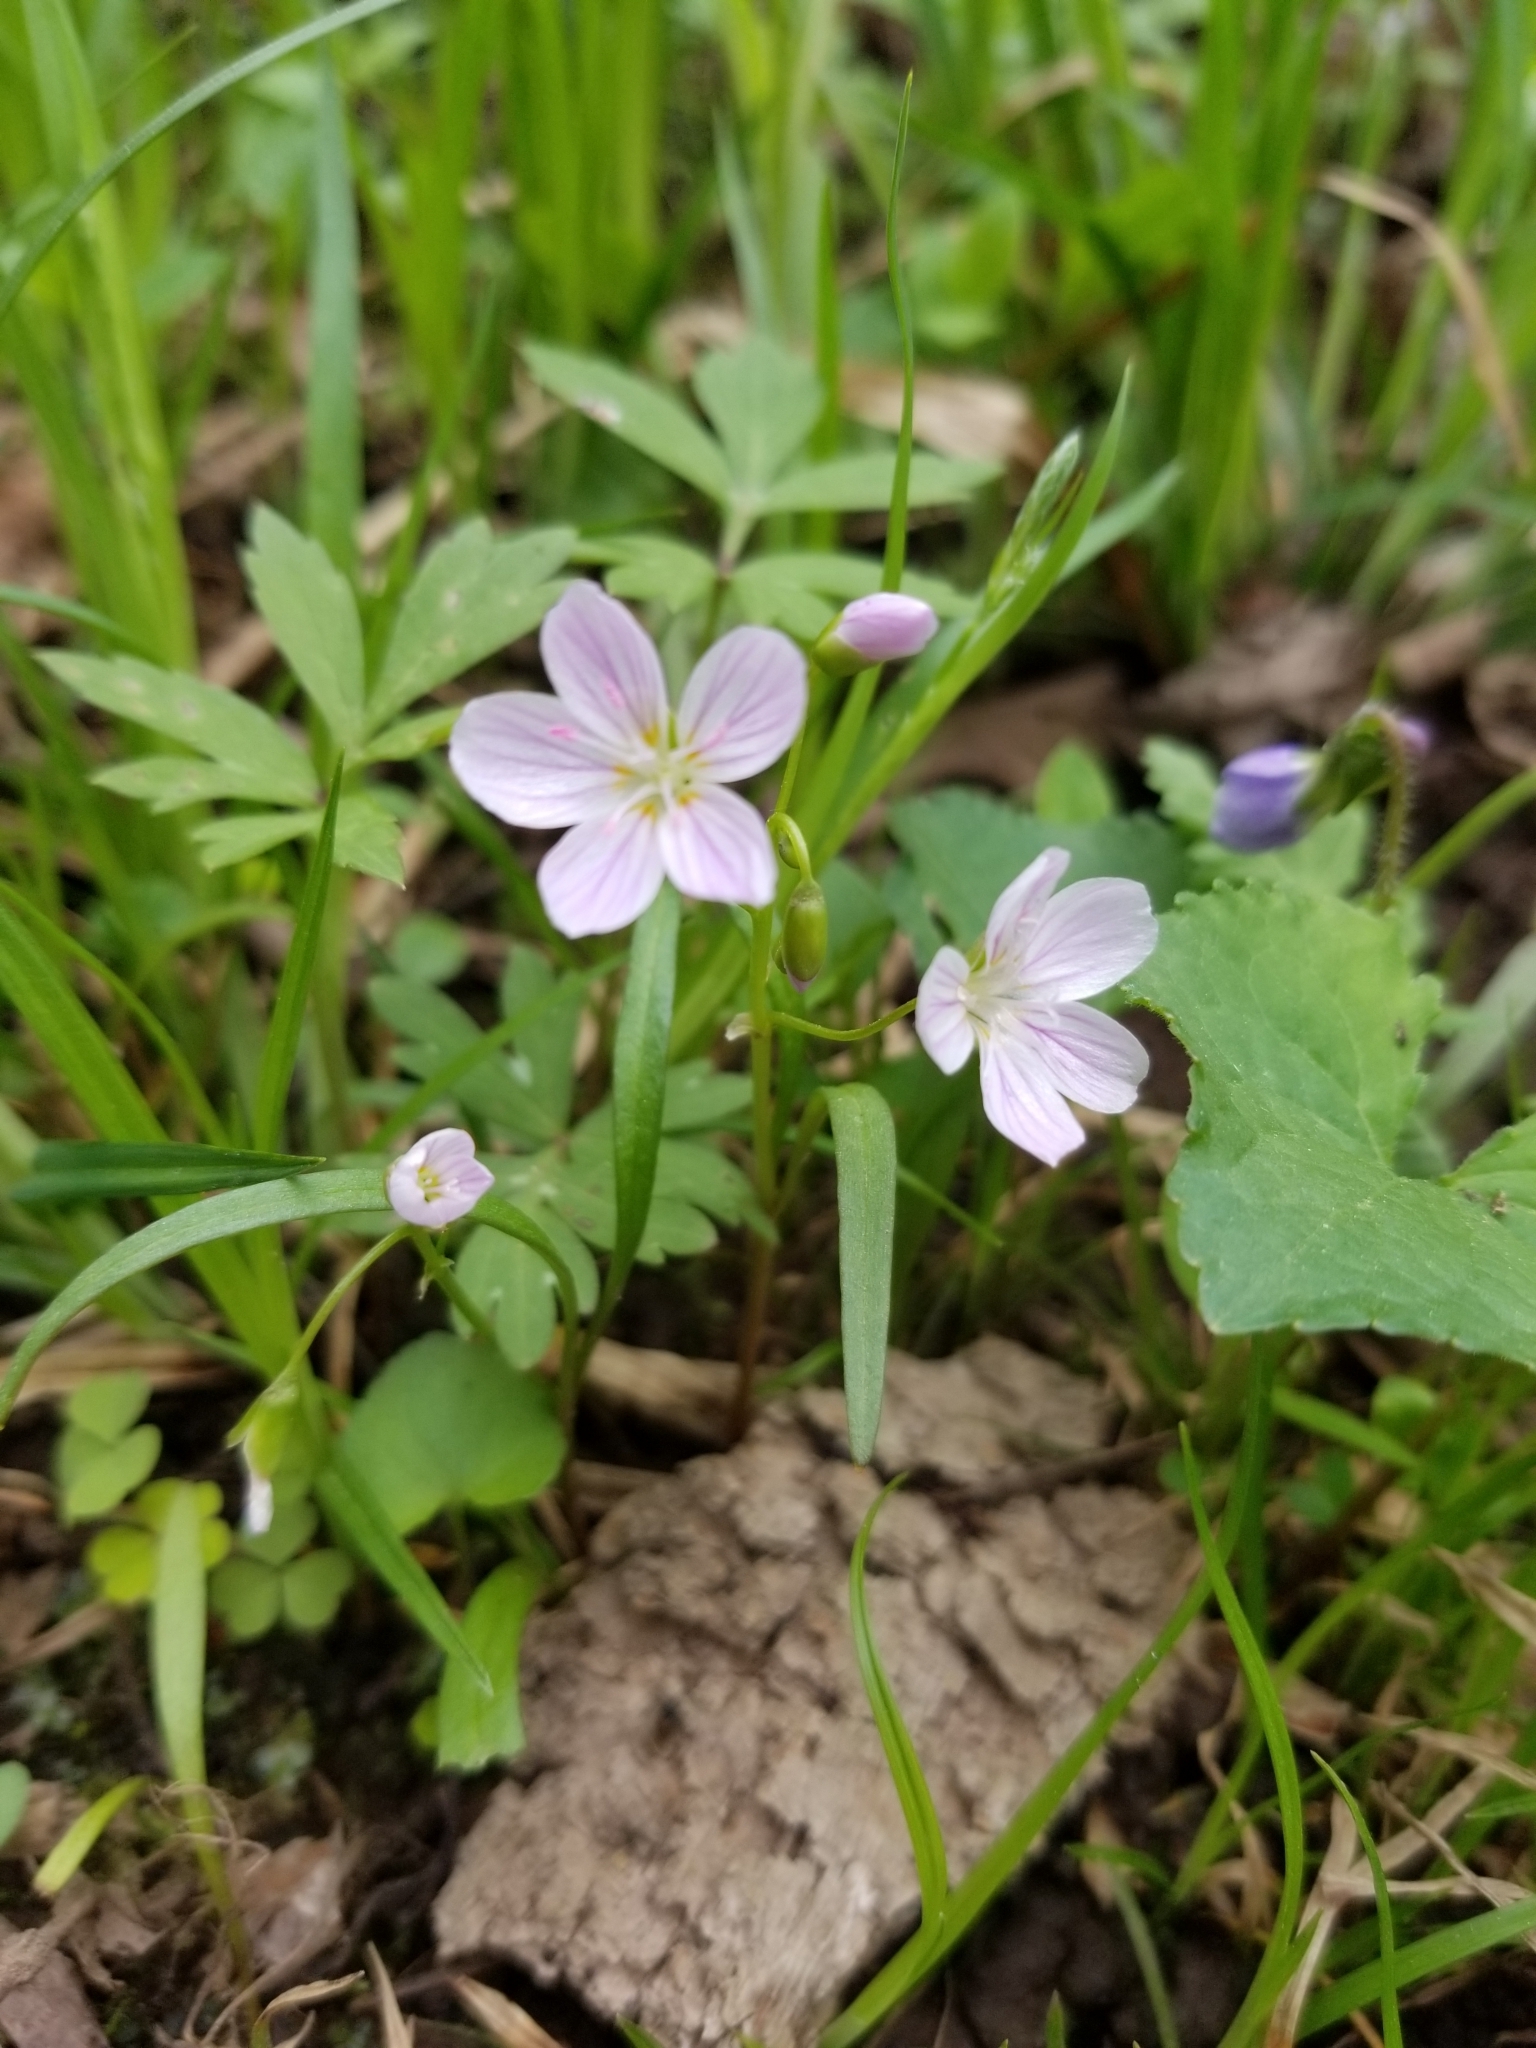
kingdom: Plantae
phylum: Tracheophyta
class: Magnoliopsida
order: Caryophyllales
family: Montiaceae
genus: Claytonia
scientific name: Claytonia virginica
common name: Virginia springbeauty
